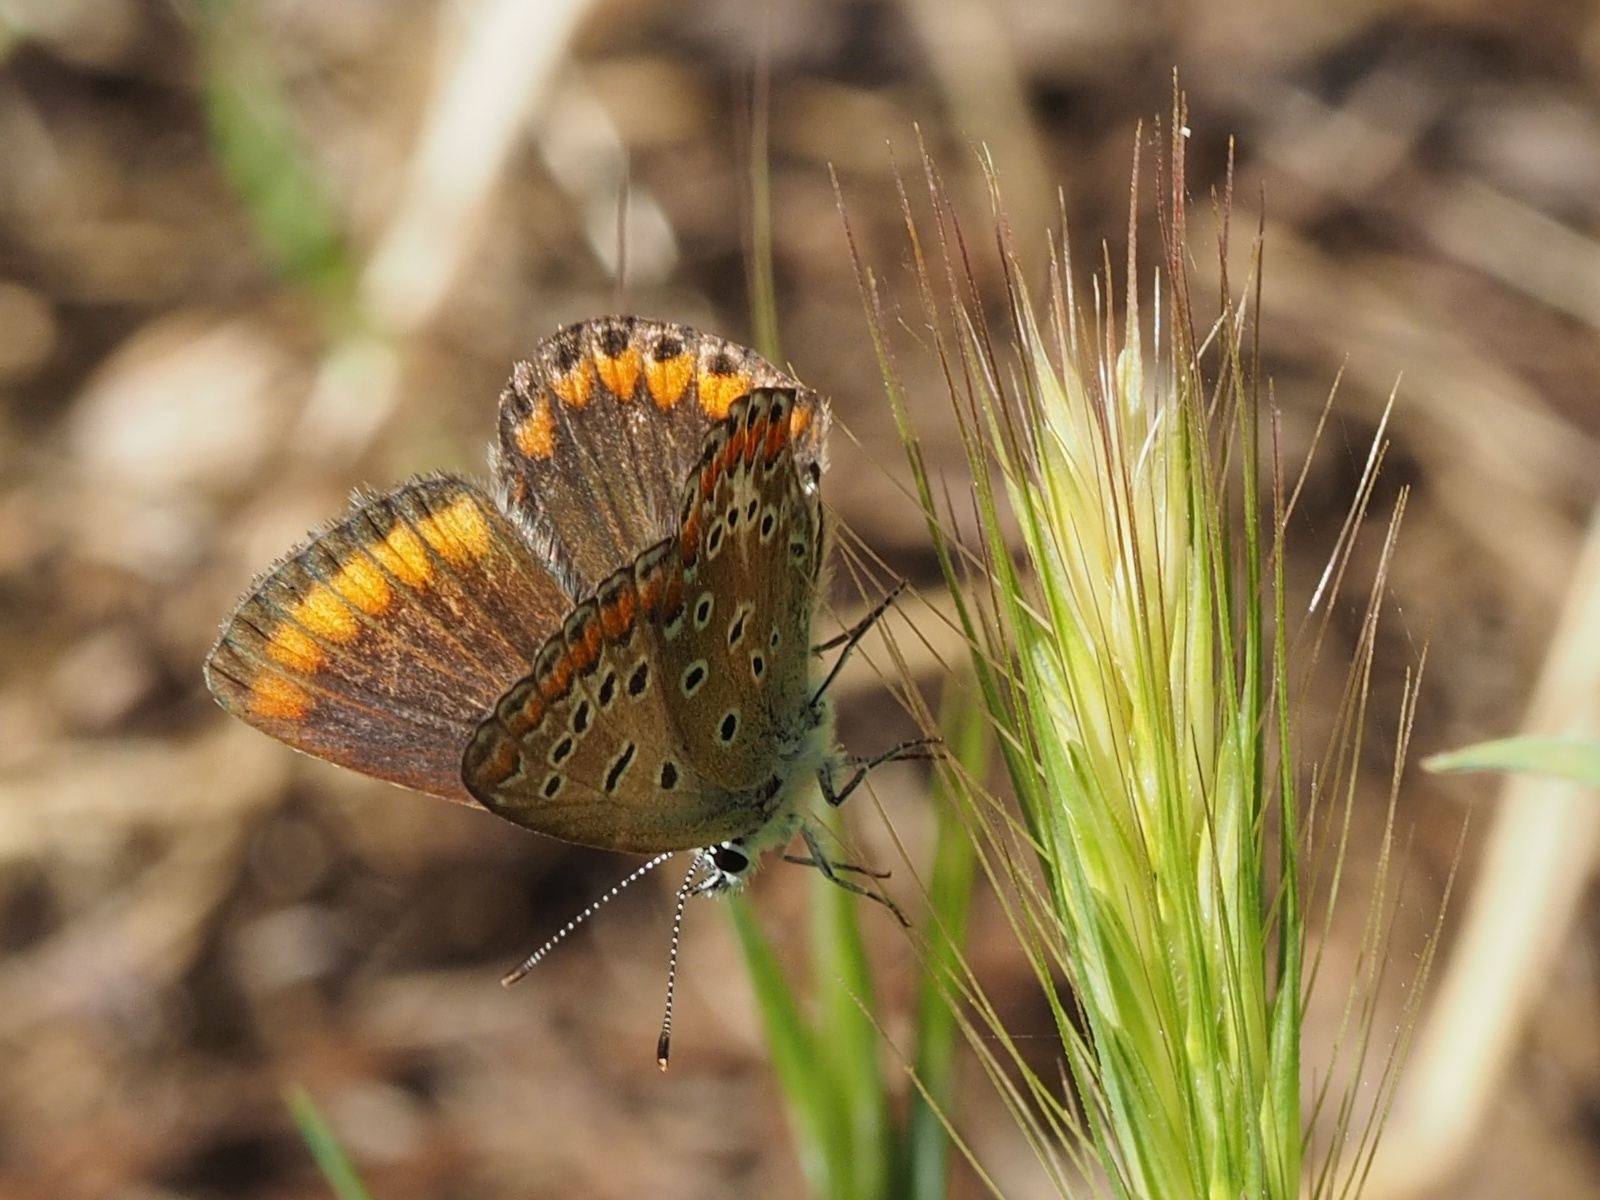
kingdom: Animalia
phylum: Arthropoda
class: Insecta
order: Lepidoptera
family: Lycaenidae
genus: Polyommatus
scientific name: Polyommatus celina
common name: Austaut's blue
